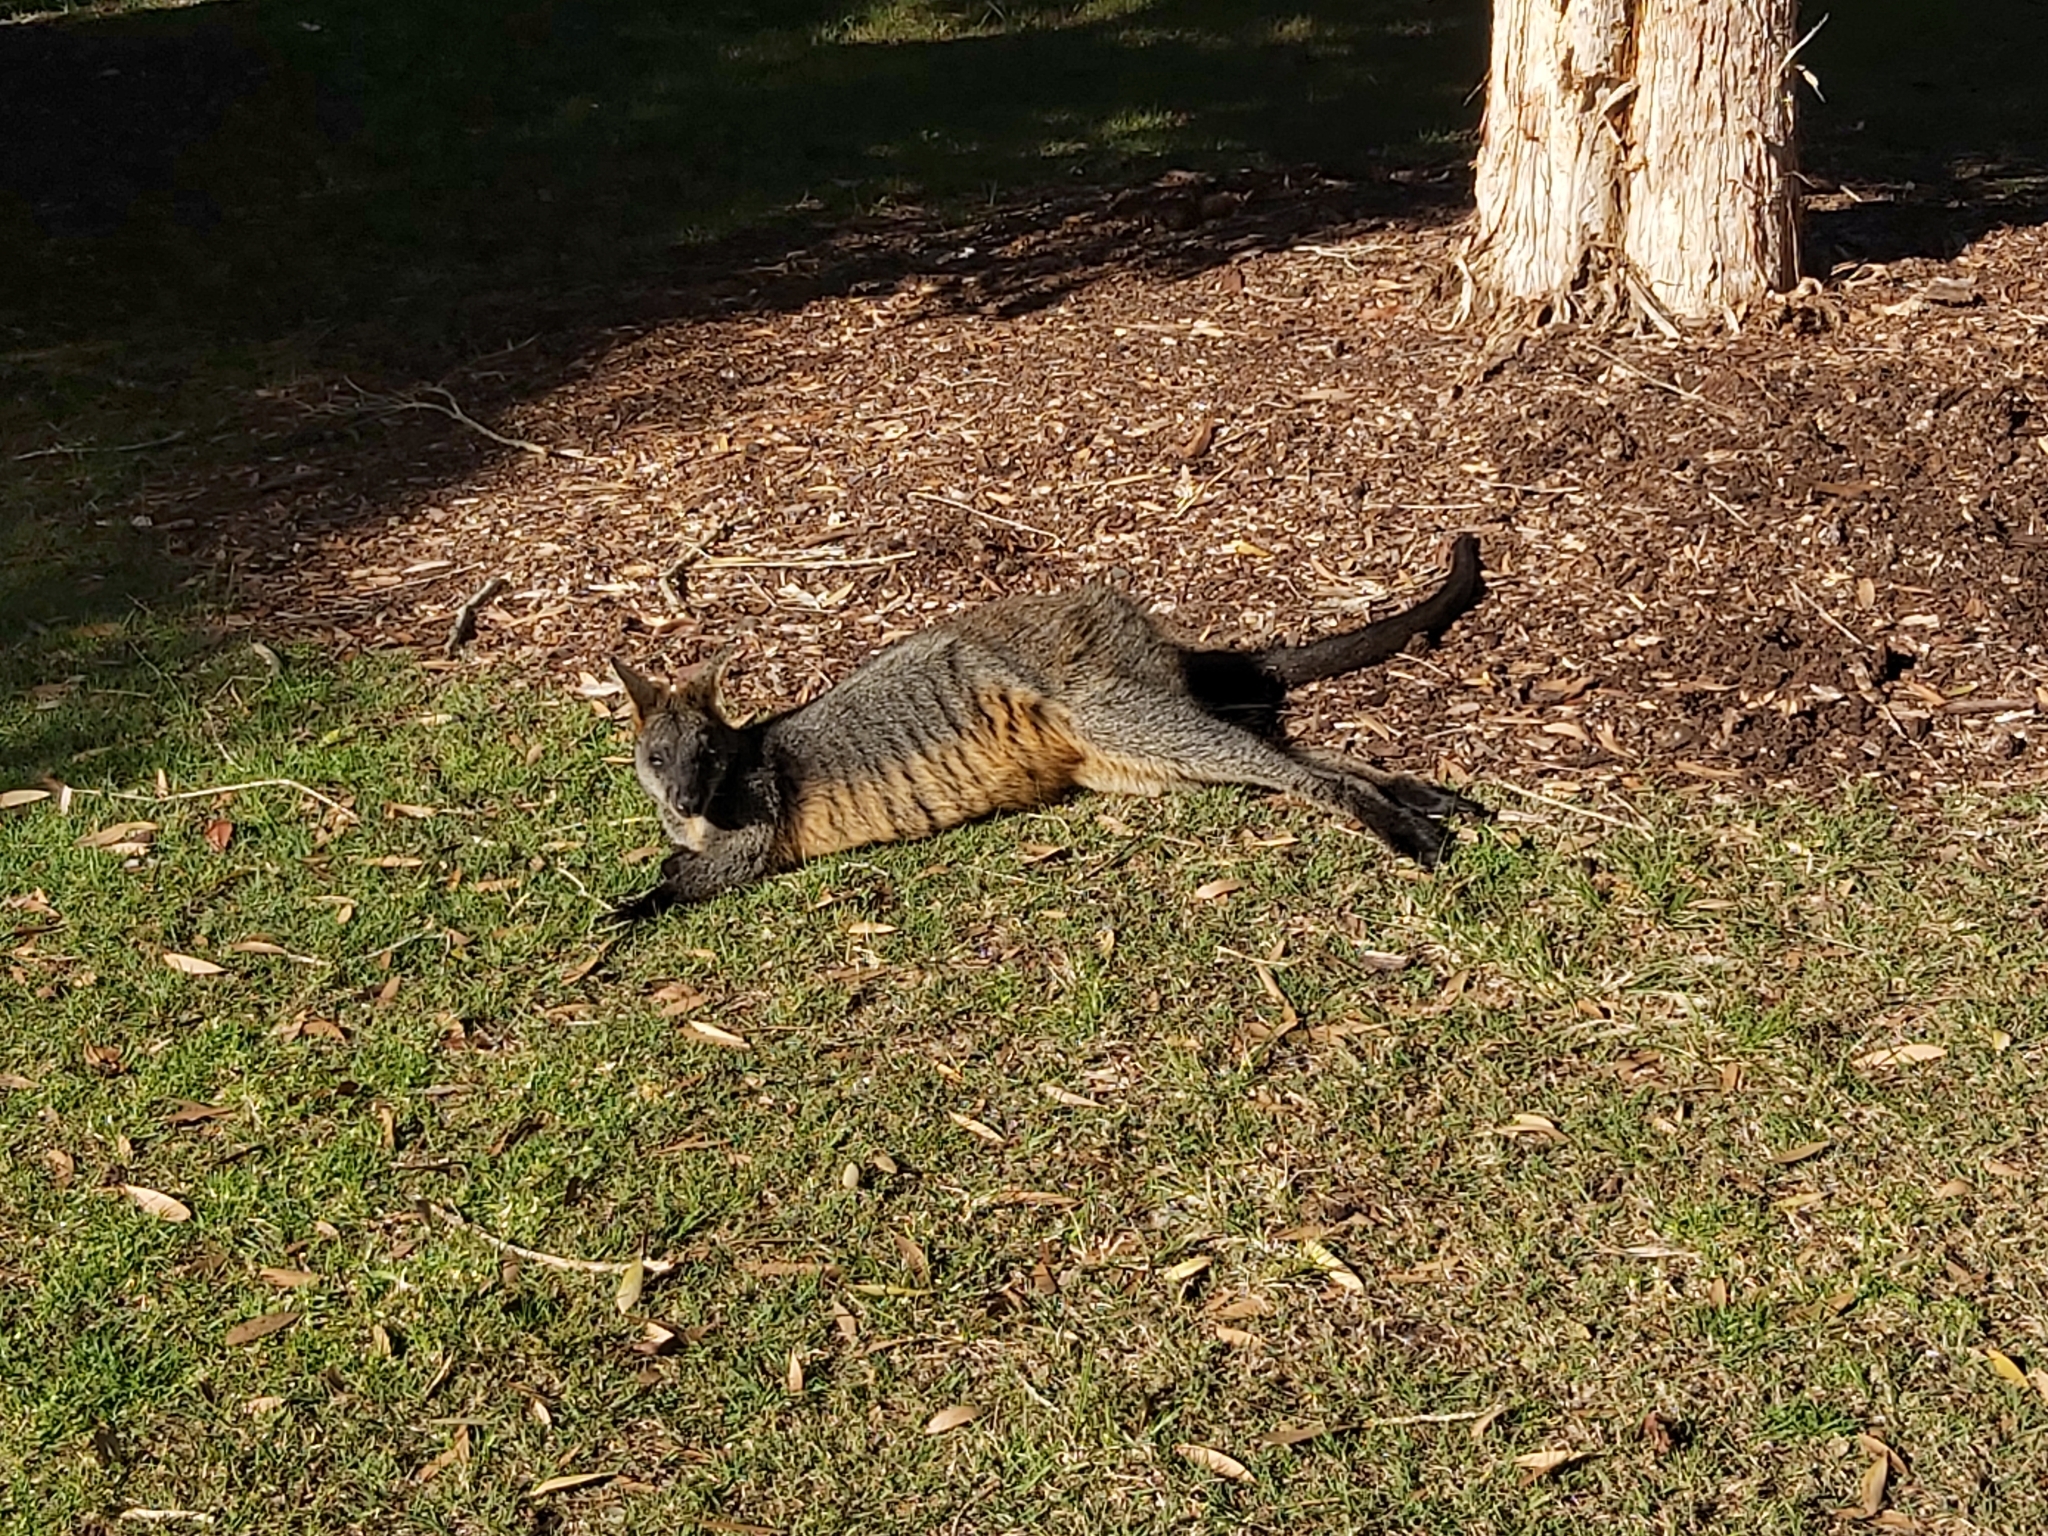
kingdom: Animalia
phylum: Chordata
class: Mammalia
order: Diprotodontia
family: Macropodidae
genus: Wallabia
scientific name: Wallabia bicolor
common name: Swamp wallaby
